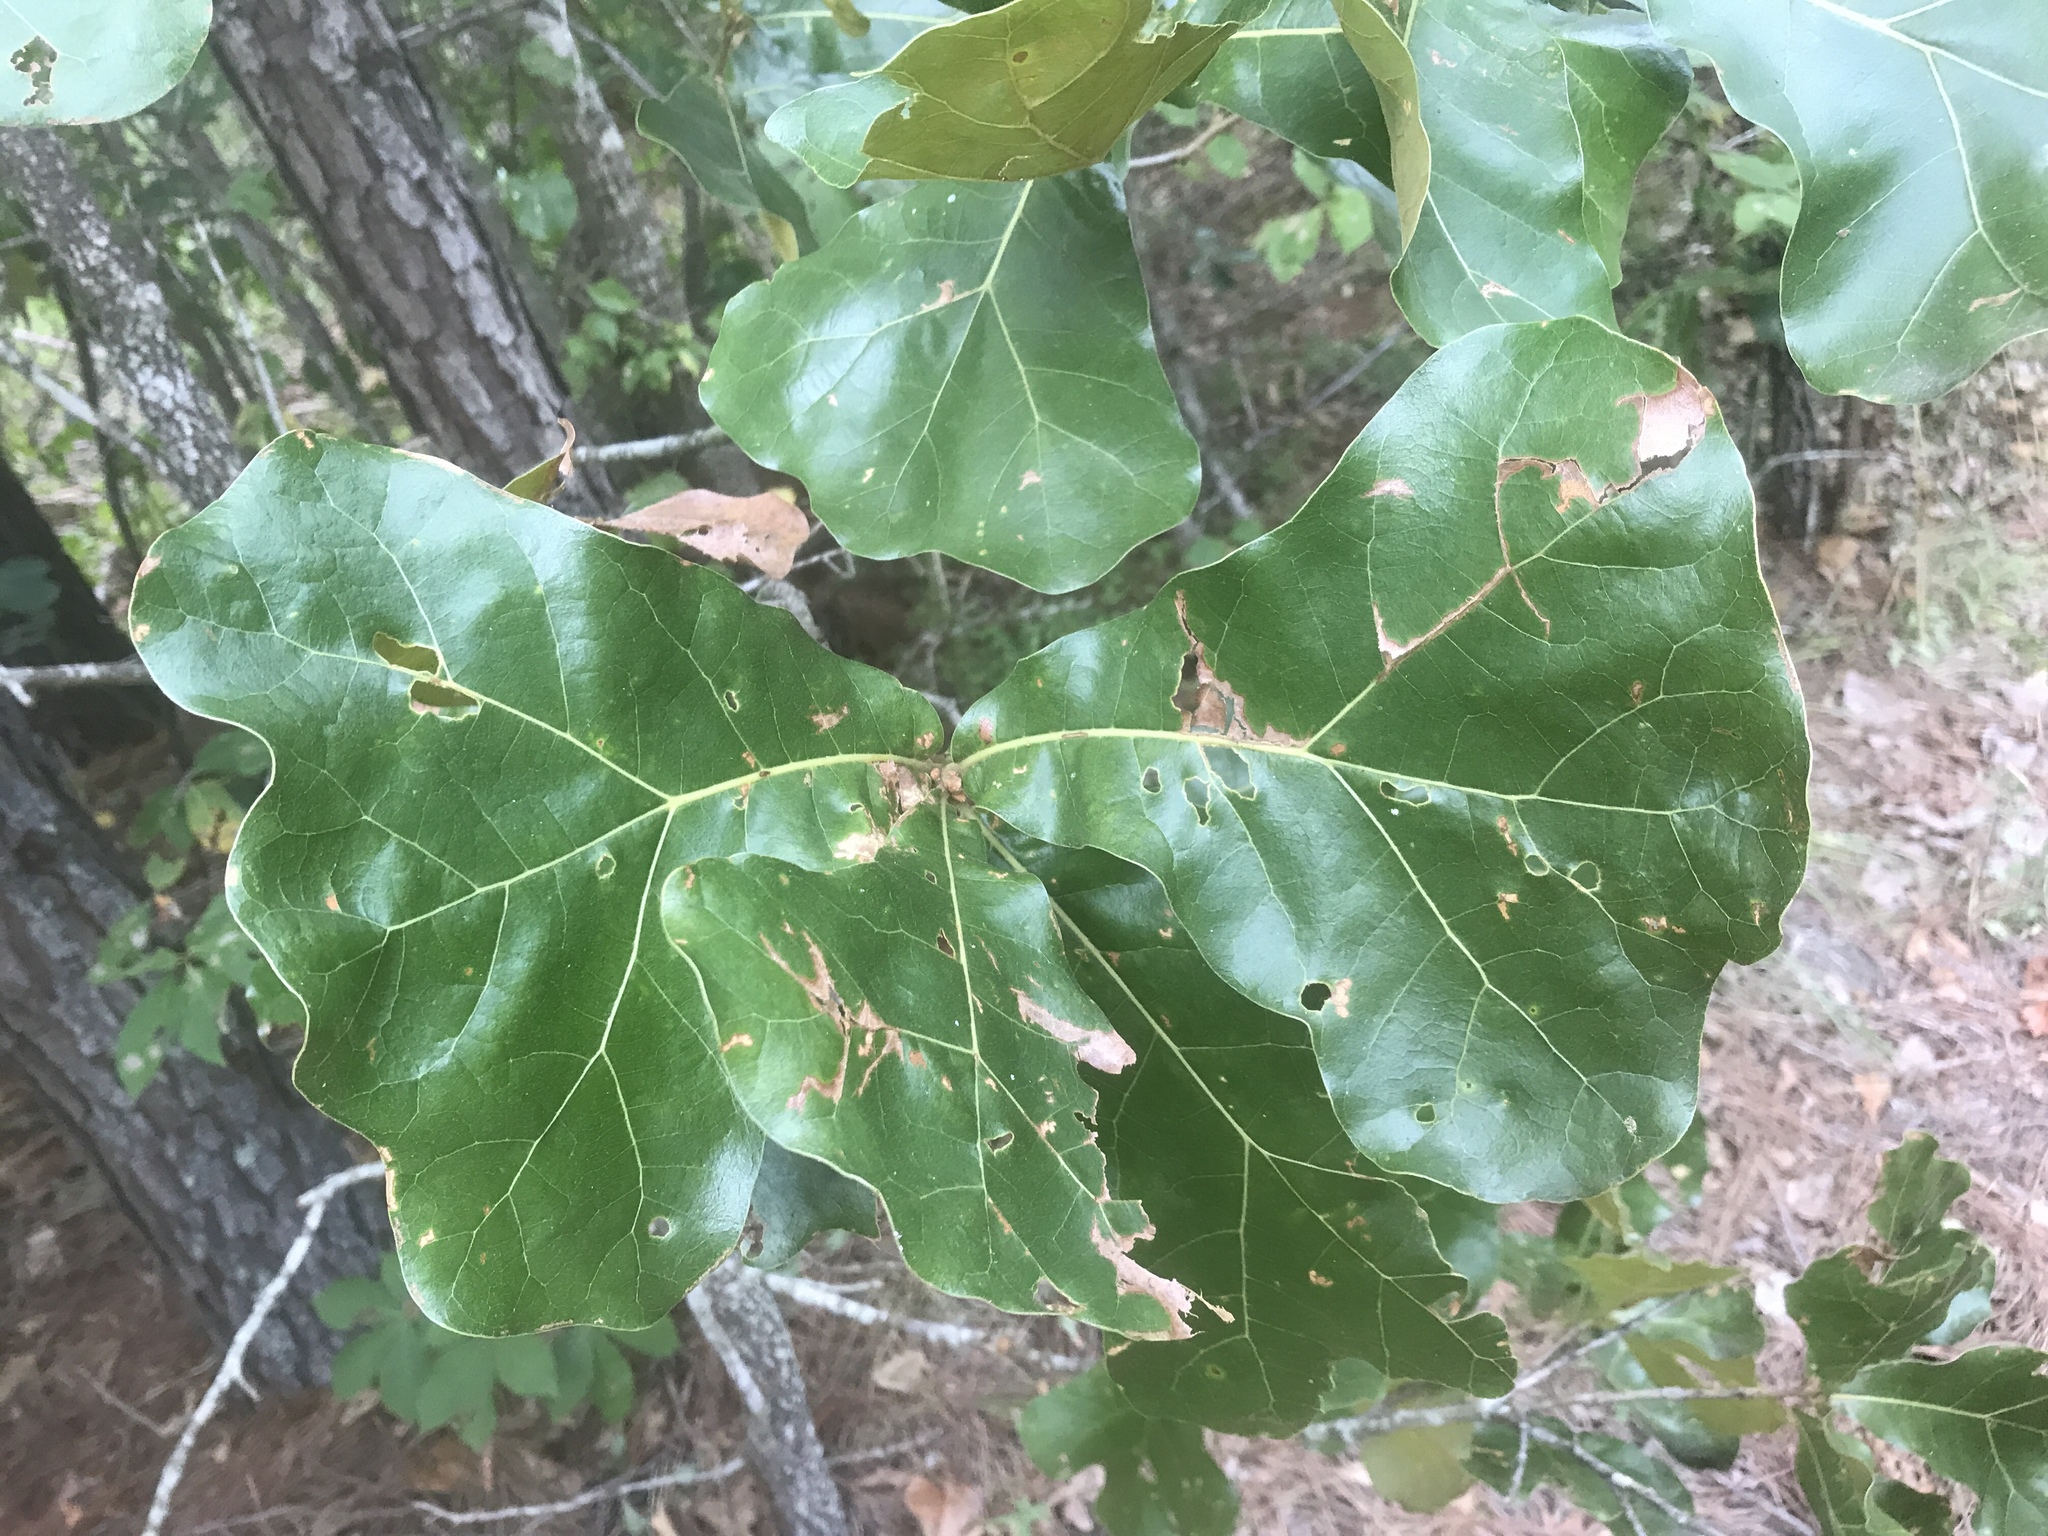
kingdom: Plantae
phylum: Tracheophyta
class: Magnoliopsida
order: Fagales
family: Fagaceae
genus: Quercus
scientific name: Quercus marilandica
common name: Blackjack oak
